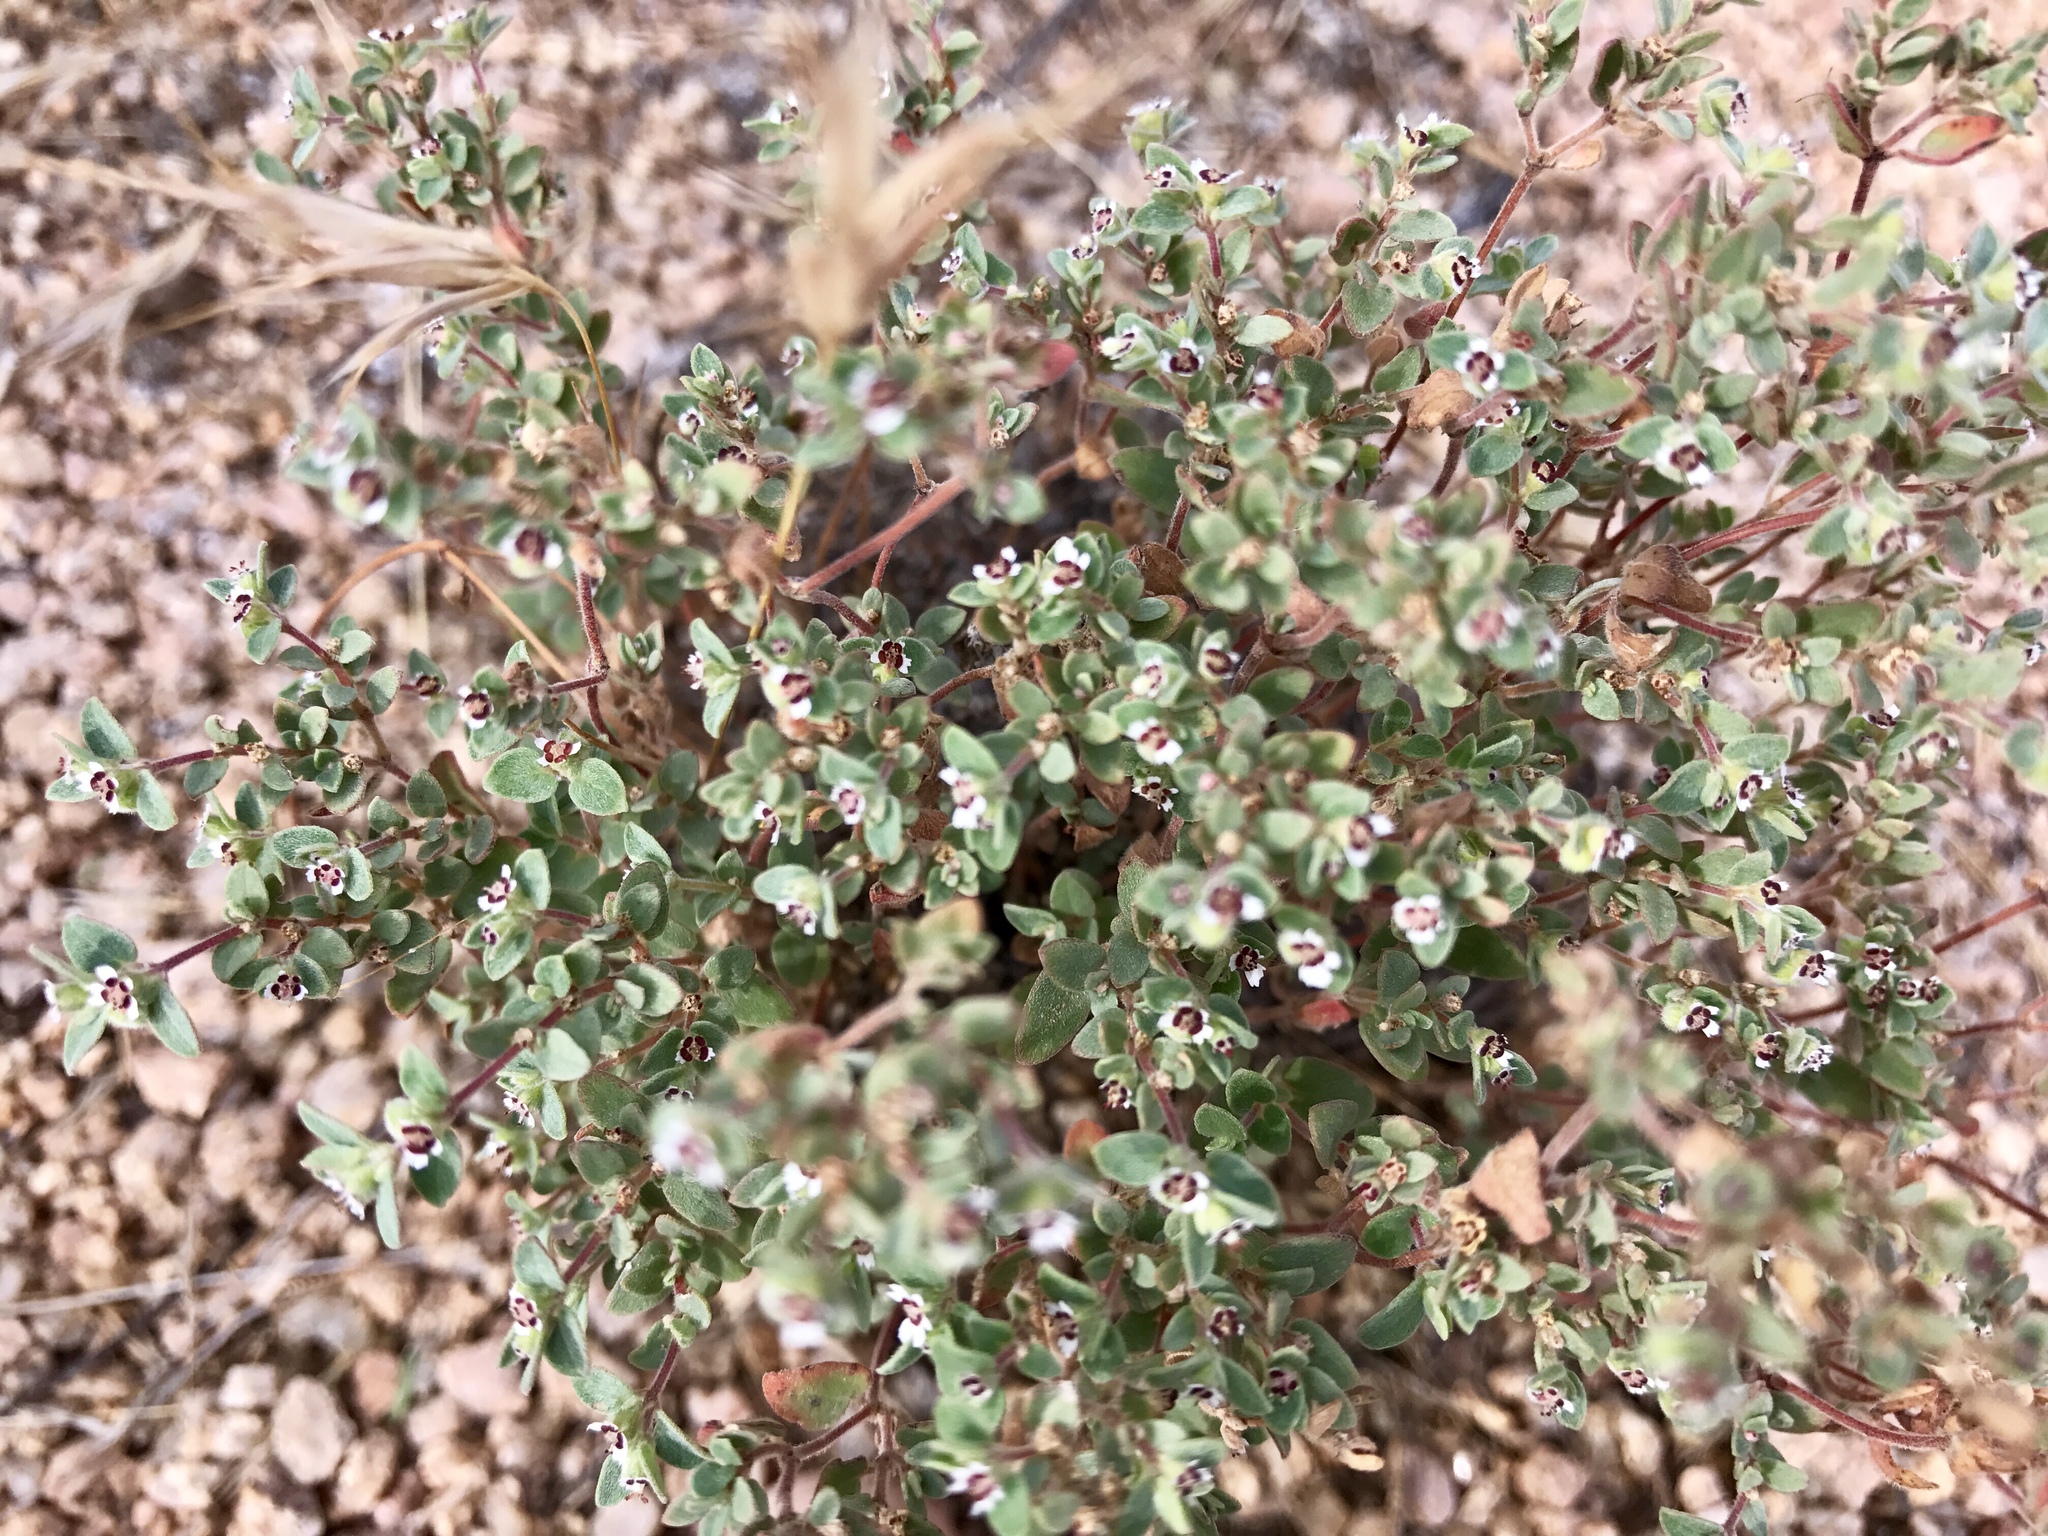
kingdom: Plantae
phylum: Tracheophyta
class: Magnoliopsida
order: Malpighiales
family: Euphorbiaceae
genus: Euphorbia
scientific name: Euphorbia melanadenia
